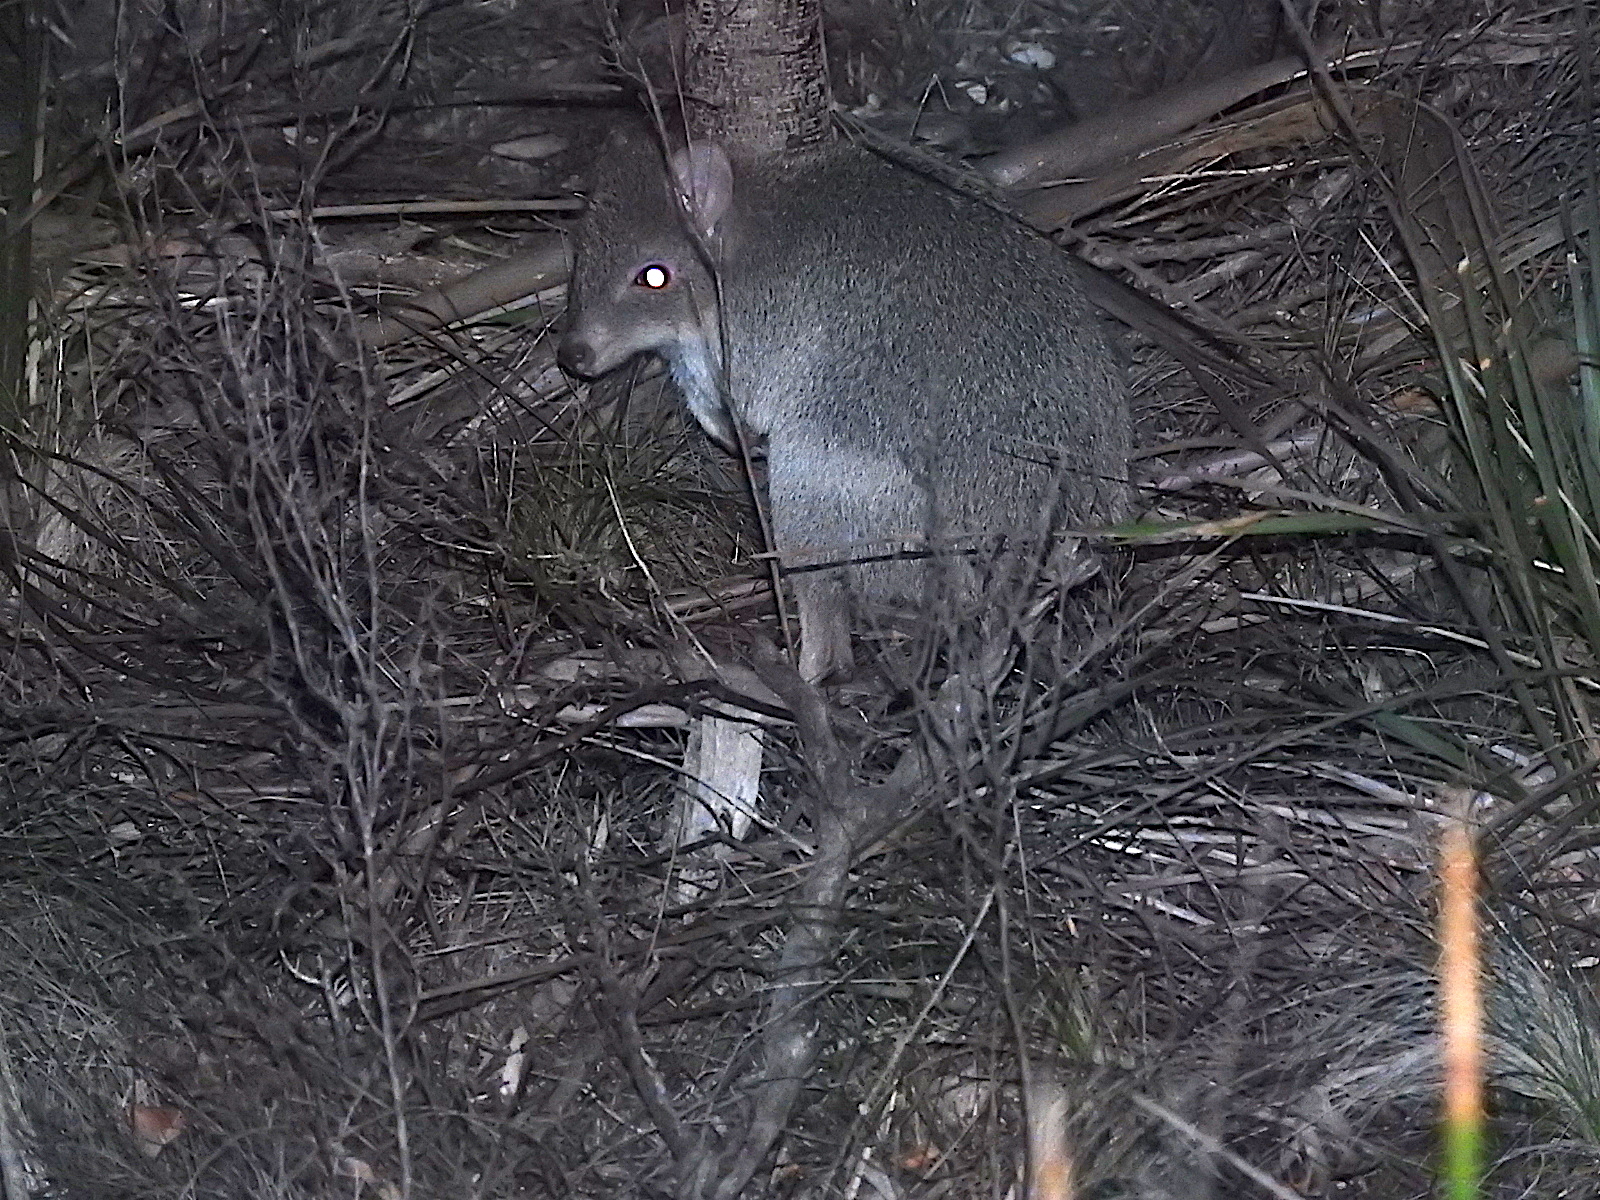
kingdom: Animalia
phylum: Chordata
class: Mammalia
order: Diprotodontia
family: Potoroidae
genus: Bettongia
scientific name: Bettongia gaimardi
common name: Eastern bettong
